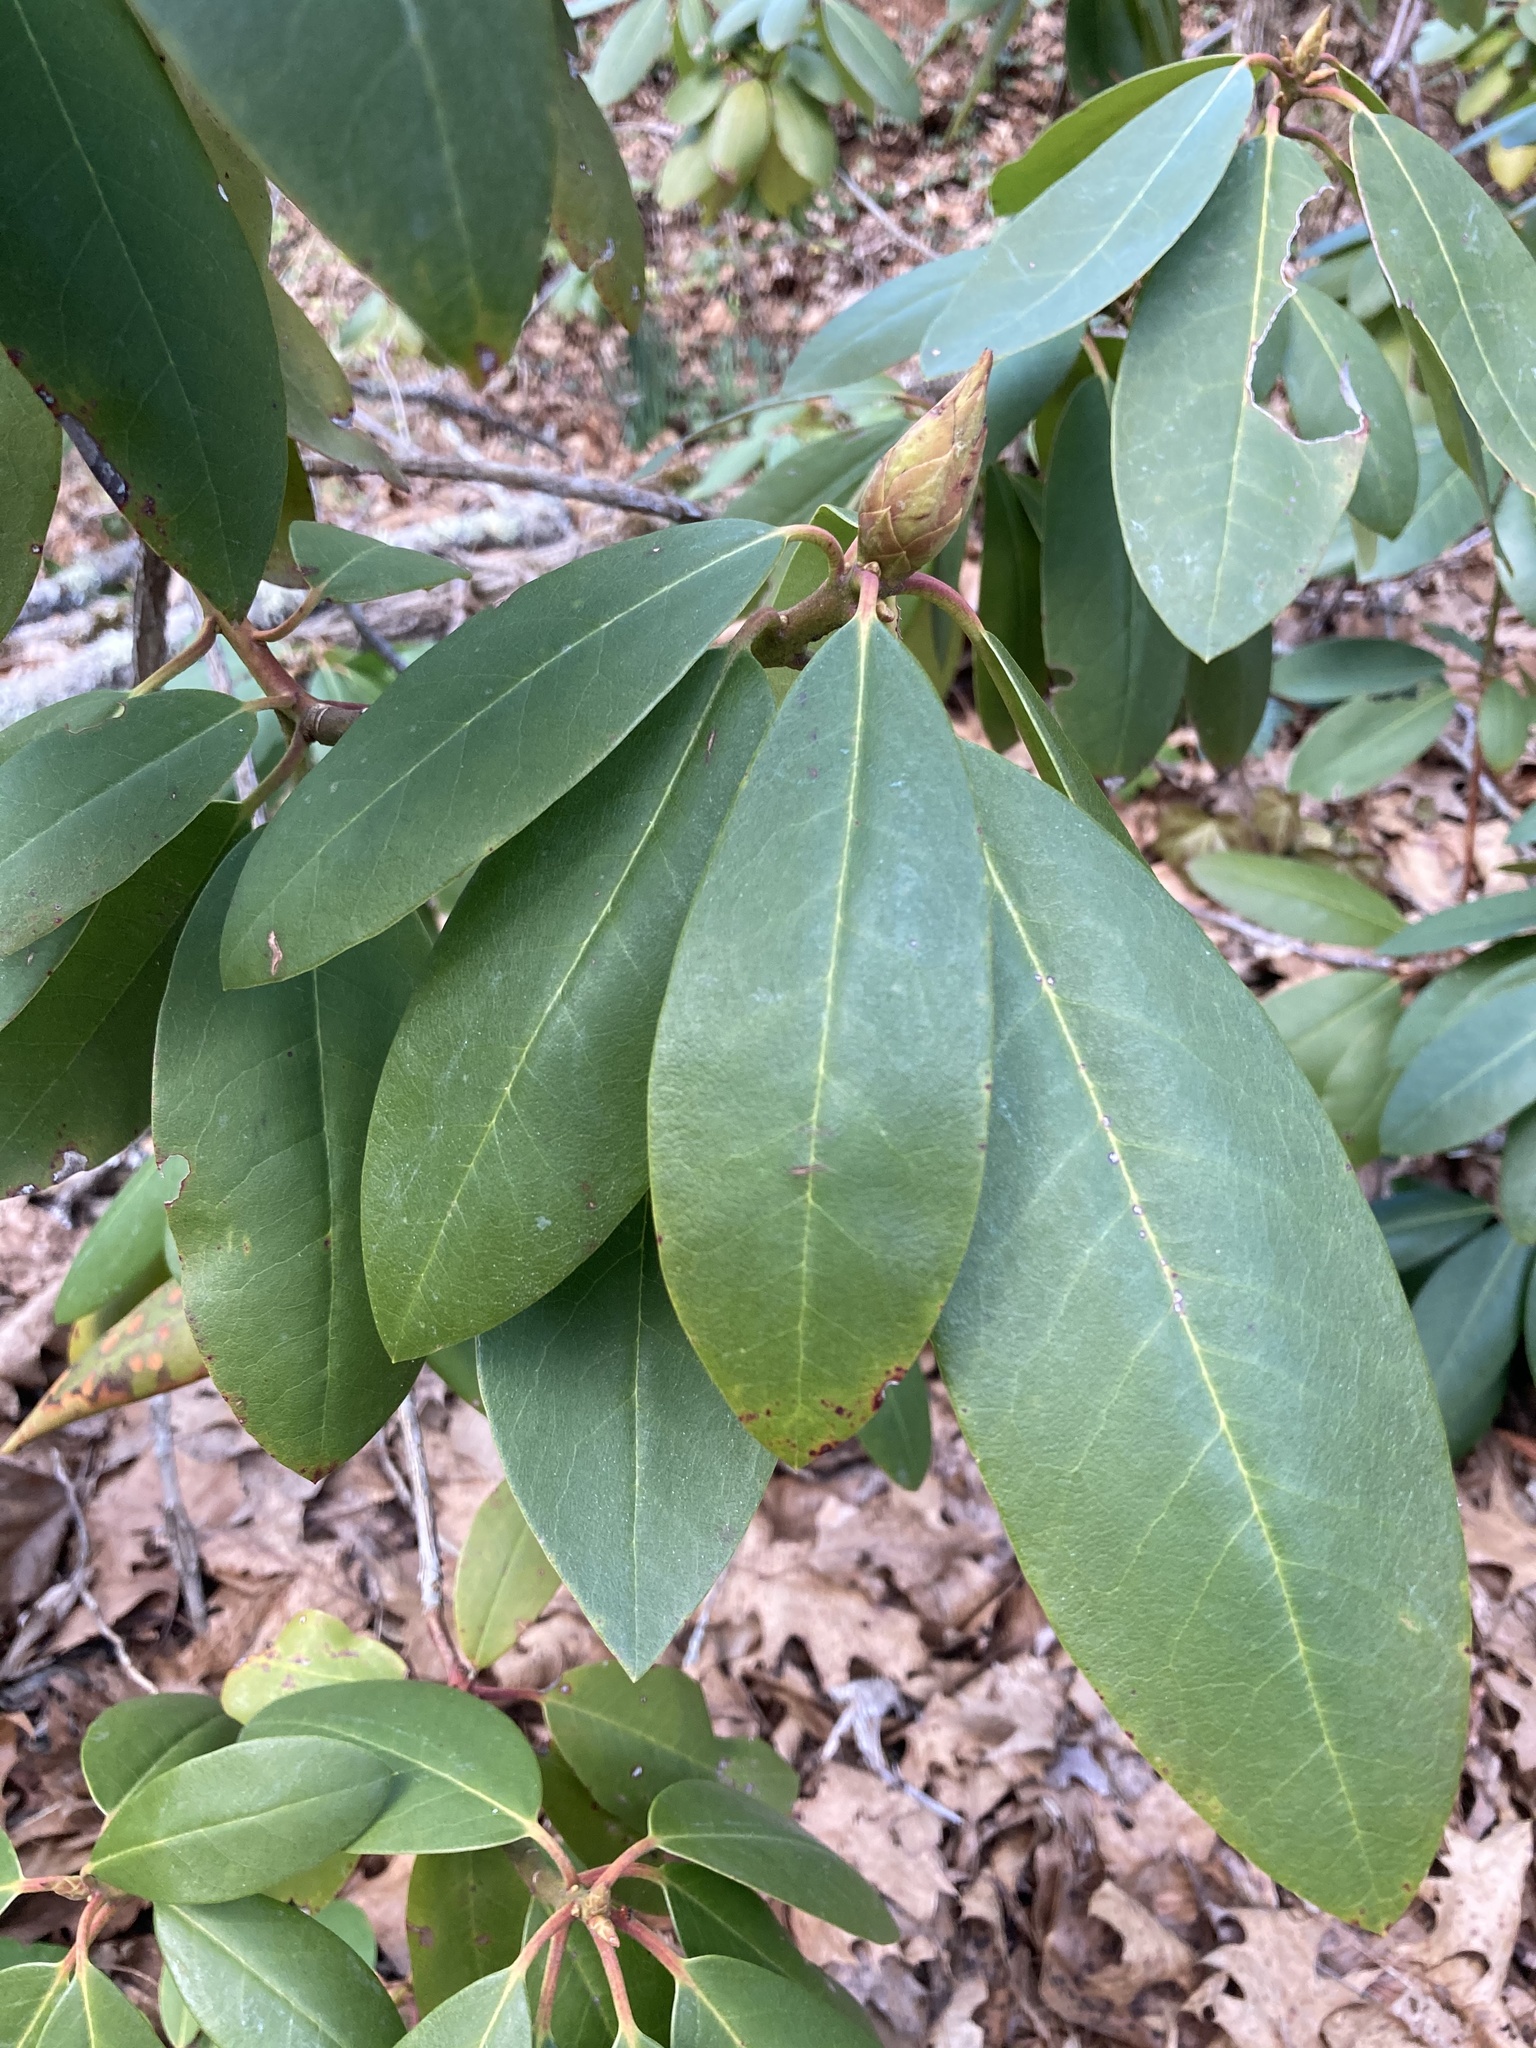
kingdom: Plantae
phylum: Tracheophyta
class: Magnoliopsida
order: Ericales
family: Ericaceae
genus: Rhododendron
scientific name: Rhododendron maximum
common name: Great rhododendron
